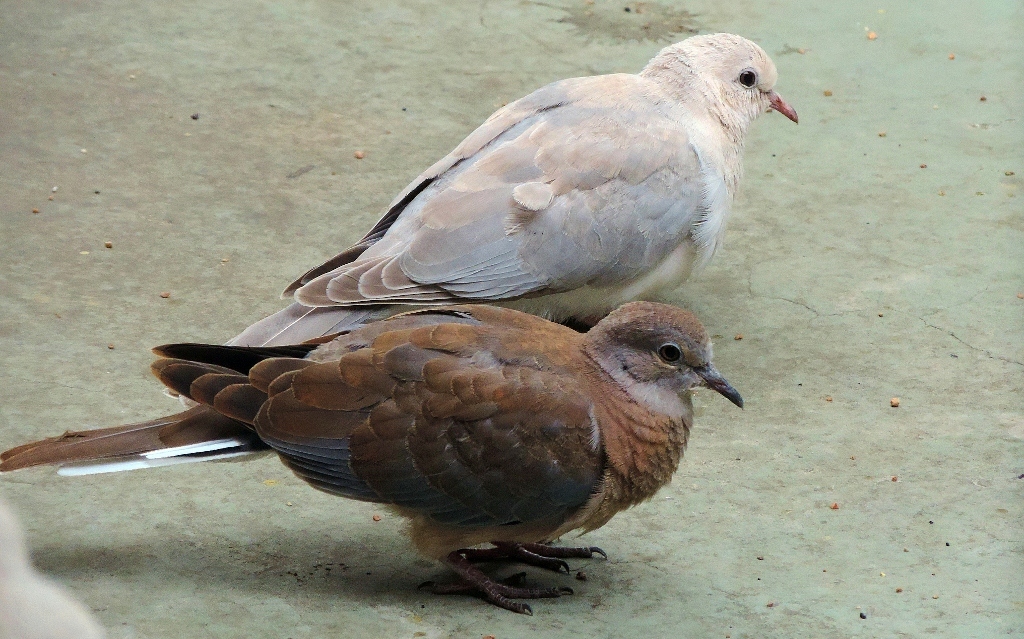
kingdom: Animalia
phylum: Chordata
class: Aves
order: Columbiformes
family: Columbidae
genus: Spilopelia
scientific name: Spilopelia senegalensis
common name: Laughing dove
